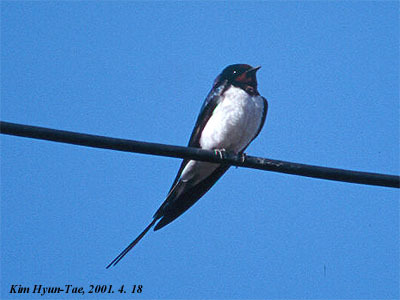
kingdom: Animalia
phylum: Chordata
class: Aves
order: Passeriformes
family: Hirundinidae
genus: Hirundo
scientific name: Hirundo rustica
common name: Barn swallow
